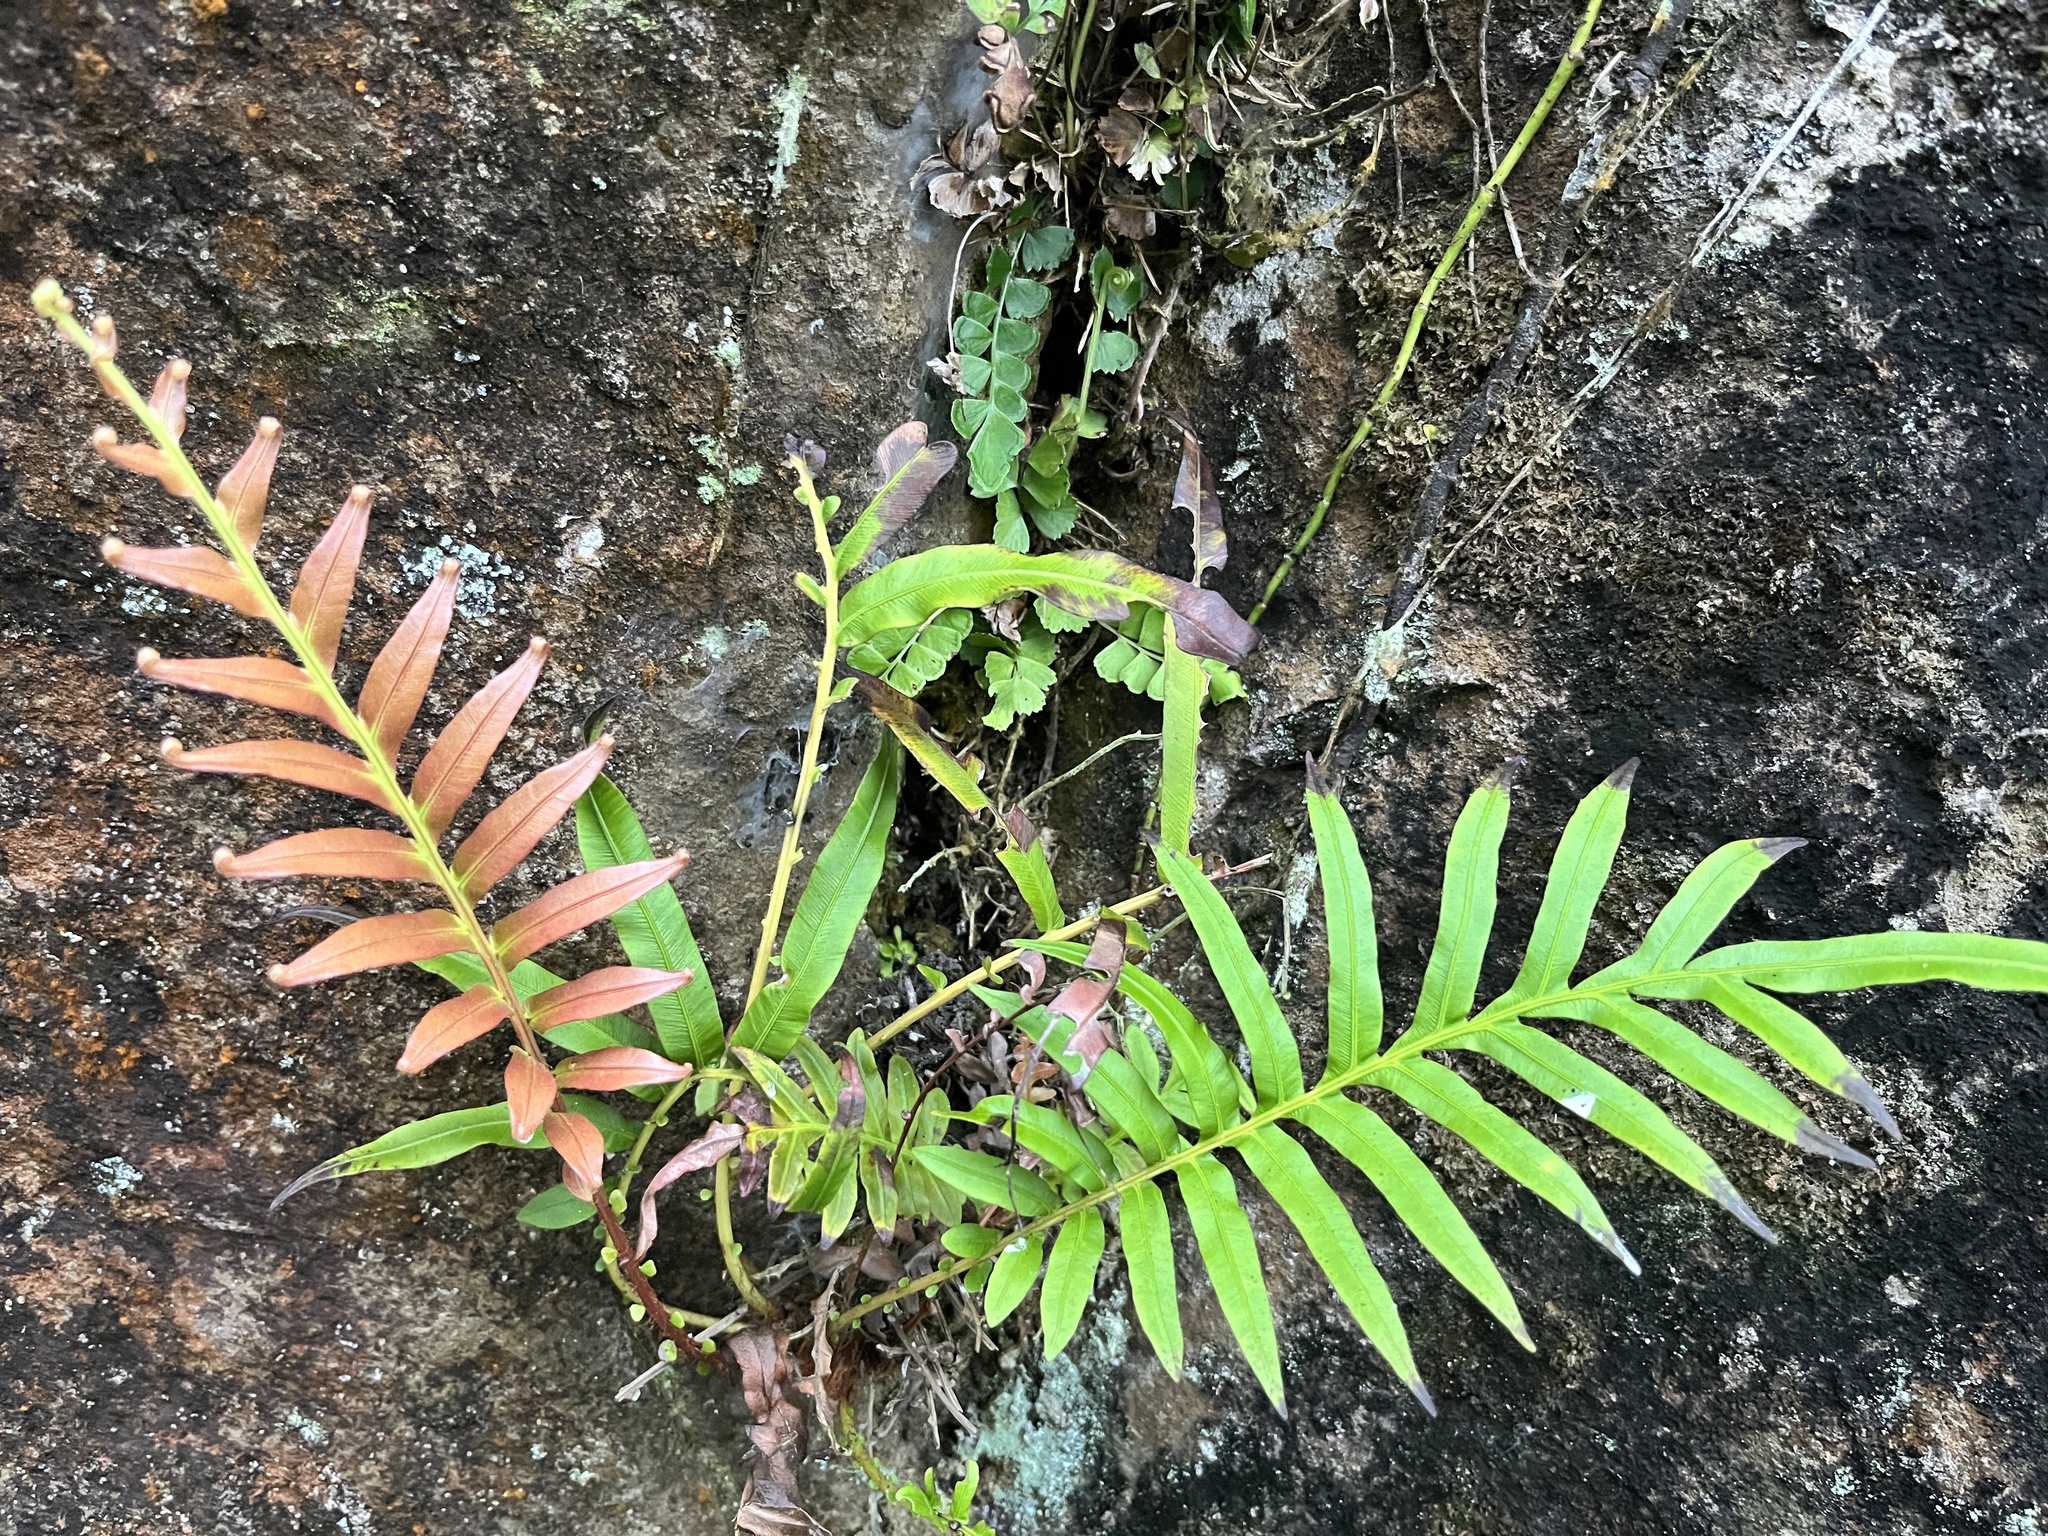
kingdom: Plantae
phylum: Tracheophyta
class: Polypodiopsida
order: Polypodiales
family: Blechnaceae
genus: Blechnopsis
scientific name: Blechnopsis orientalis
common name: Oriental blechnum
